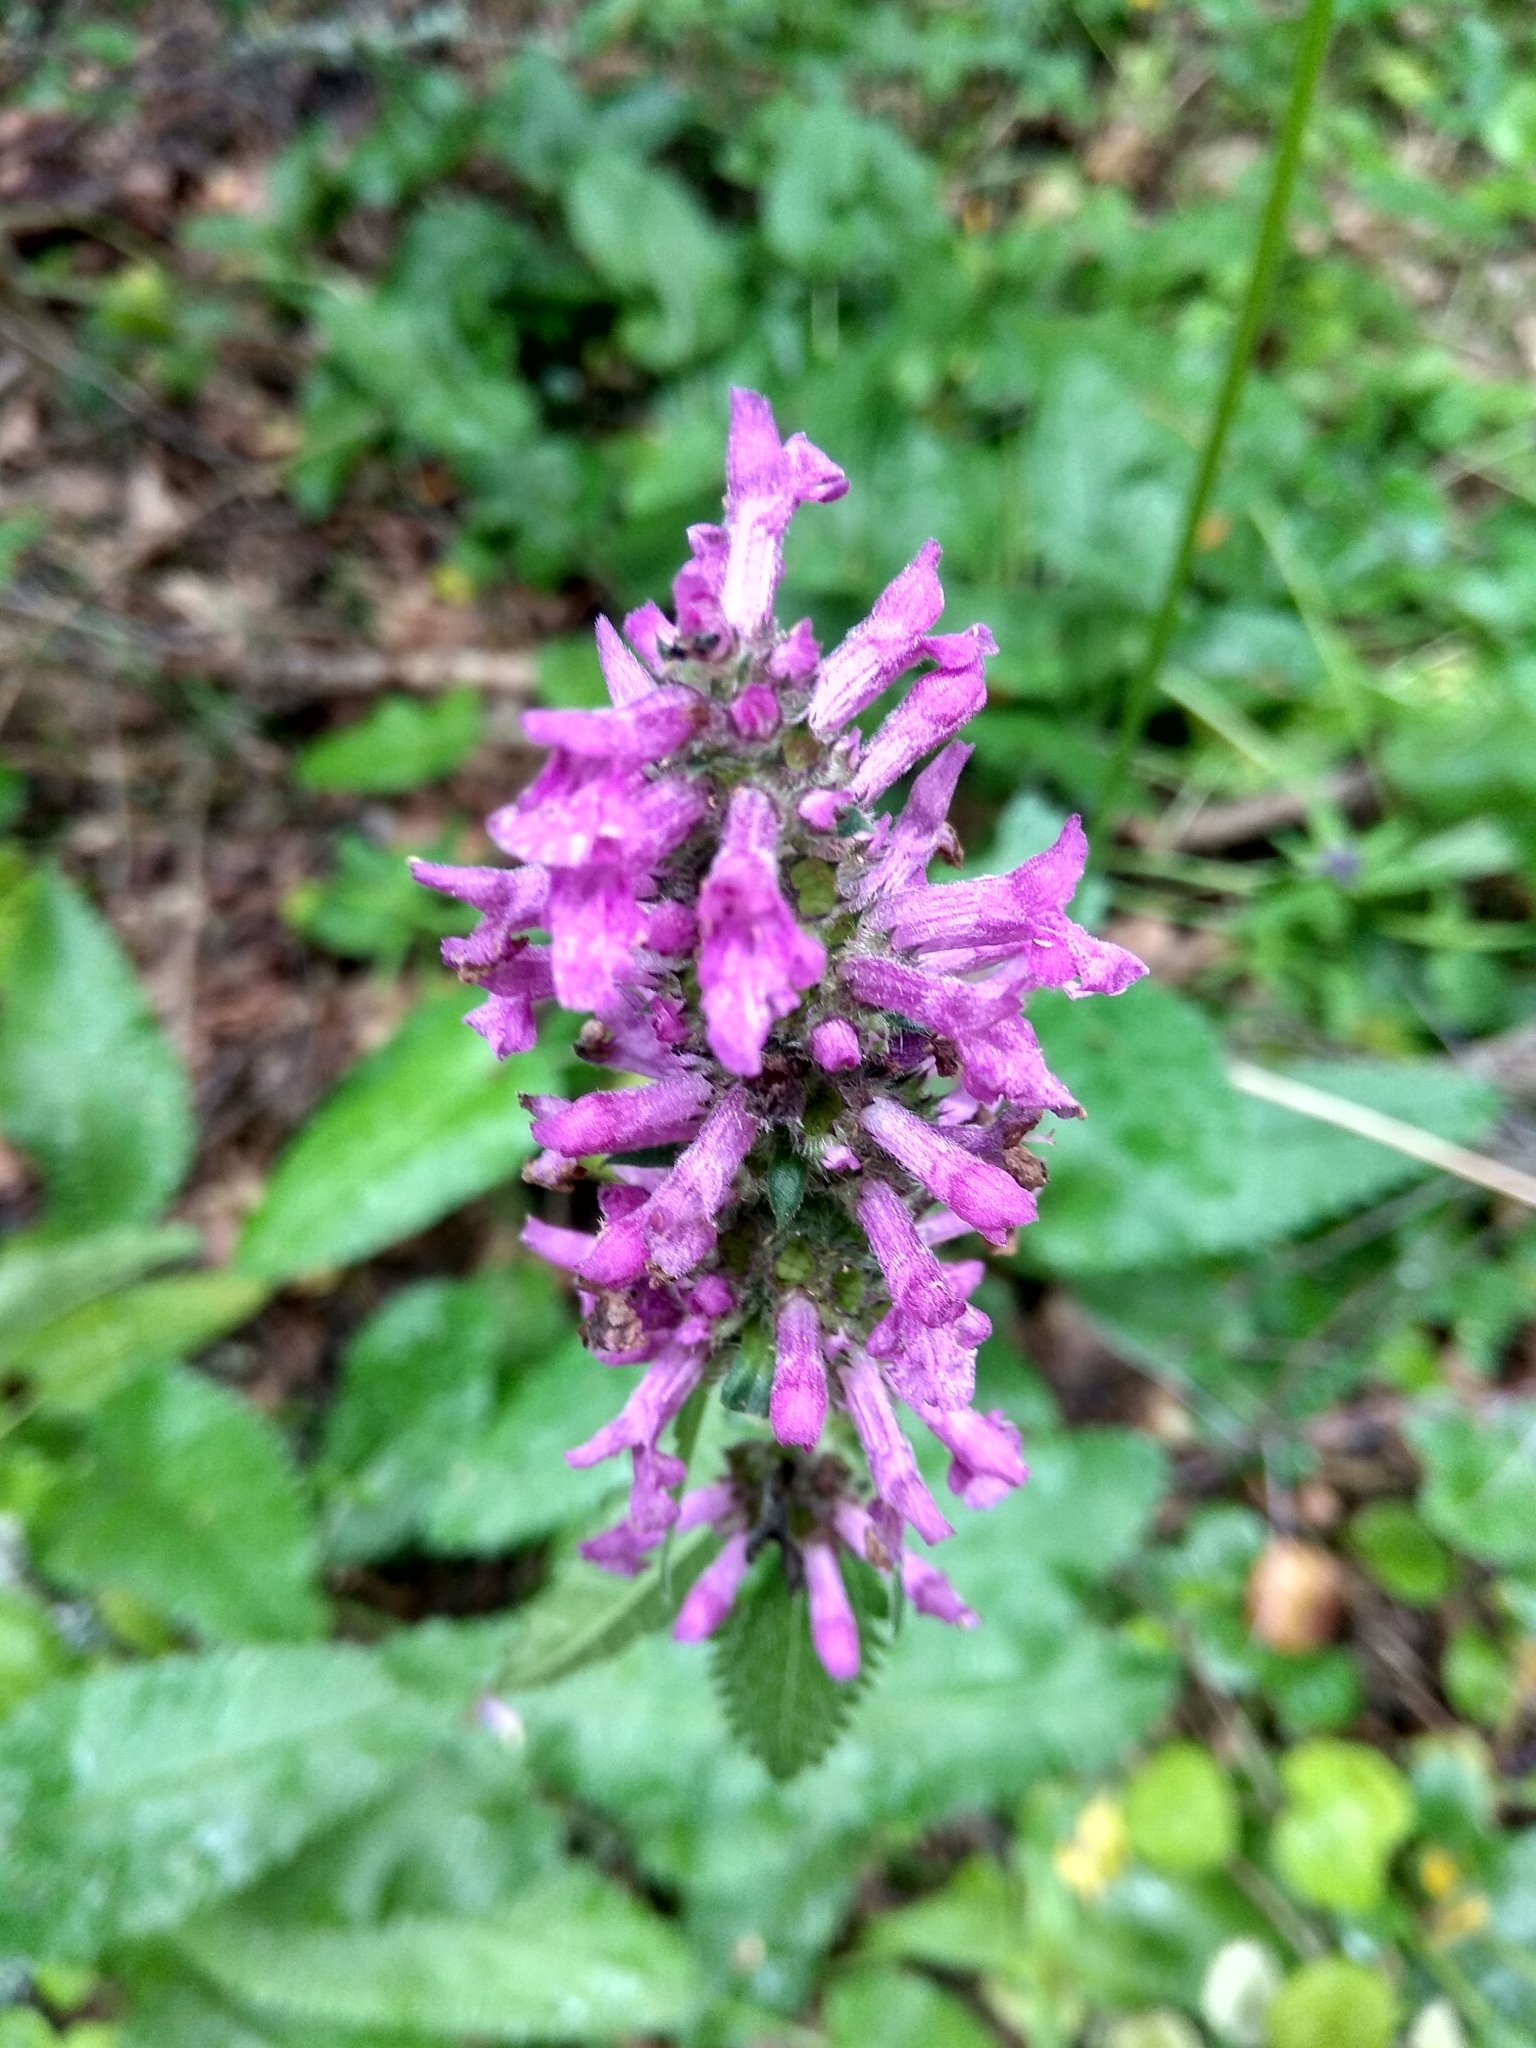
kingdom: Plantae
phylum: Tracheophyta
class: Magnoliopsida
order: Lamiales
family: Lamiaceae
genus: Betonica
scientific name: Betonica officinalis
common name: Bishop's-wort
